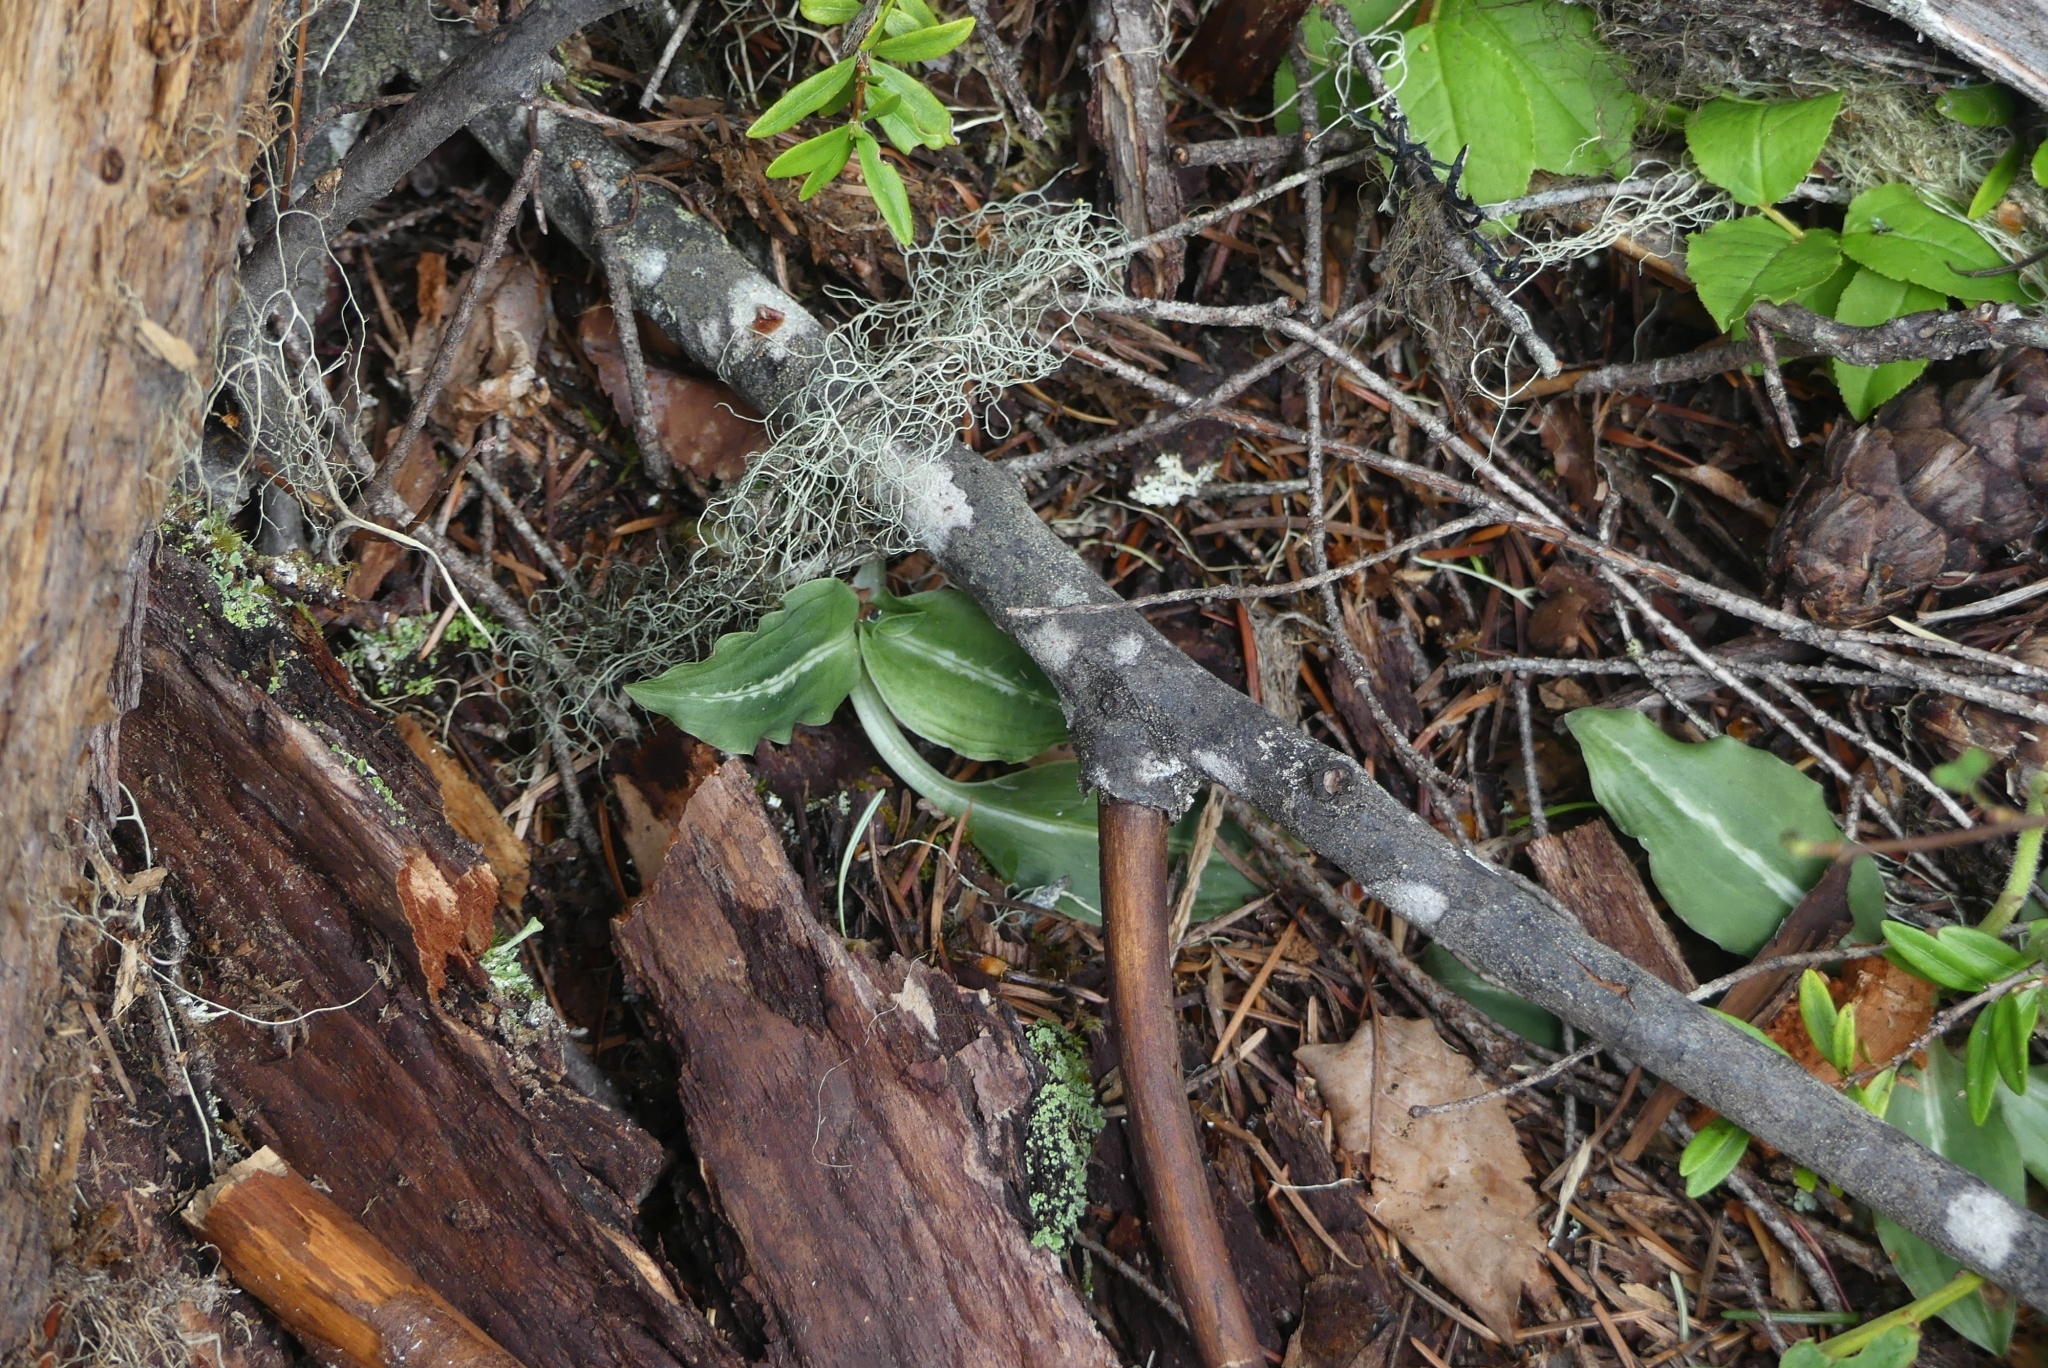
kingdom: Plantae
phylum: Tracheophyta
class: Liliopsida
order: Asparagales
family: Orchidaceae
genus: Goodyera
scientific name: Goodyera oblongifolia
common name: Giant rattlesnake-plantain
